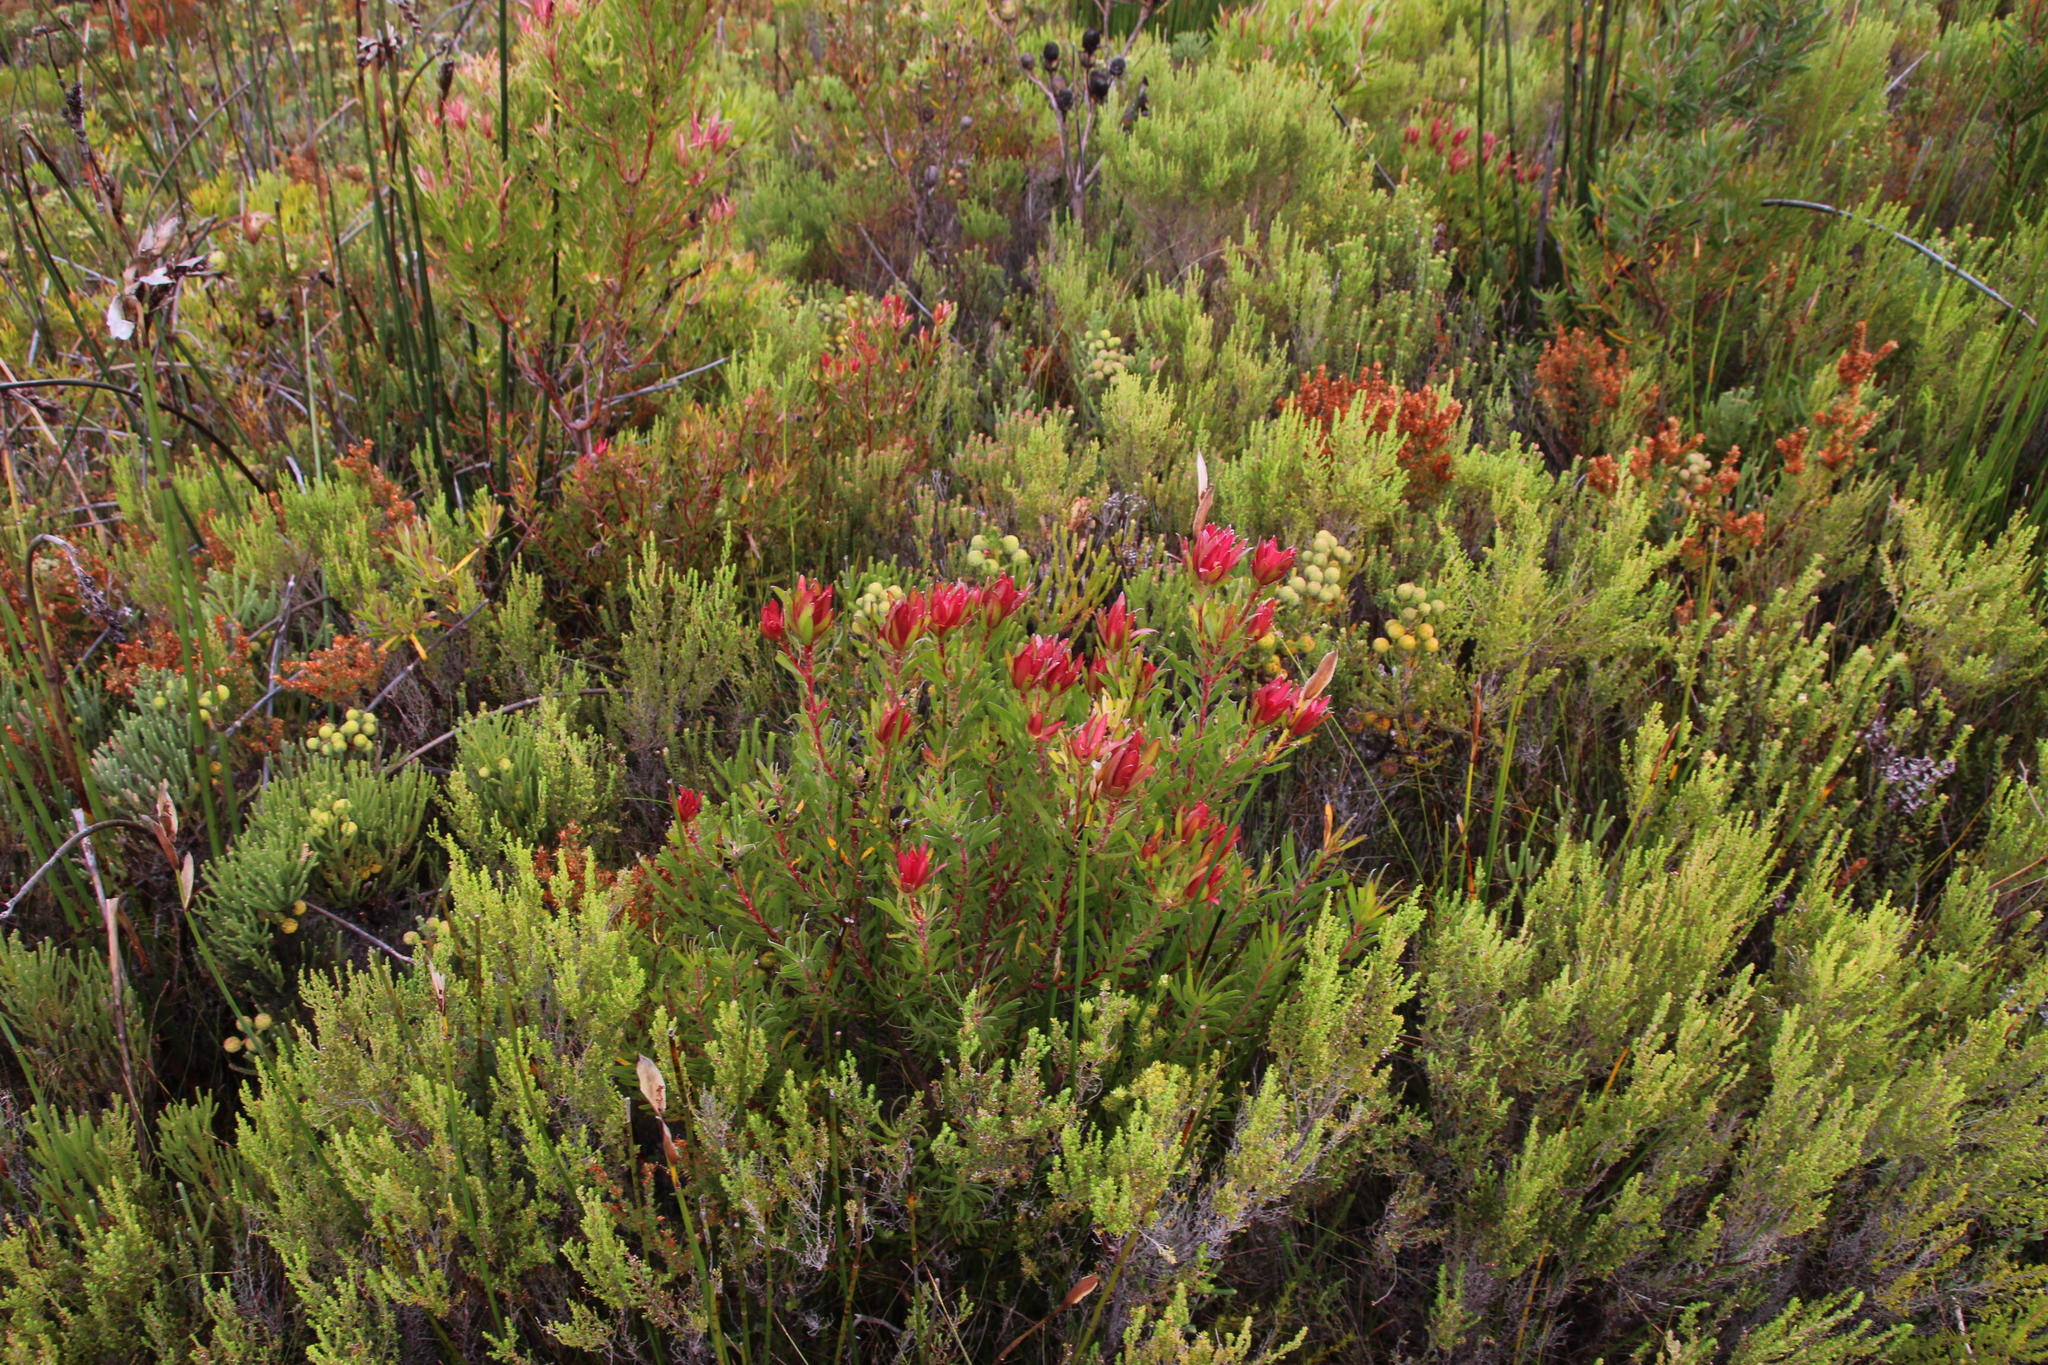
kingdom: Plantae
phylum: Tracheophyta
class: Magnoliopsida
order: Proteales
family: Proteaceae
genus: Leucadendron
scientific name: Leucadendron spissifolium
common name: Spear-leaf conebush
